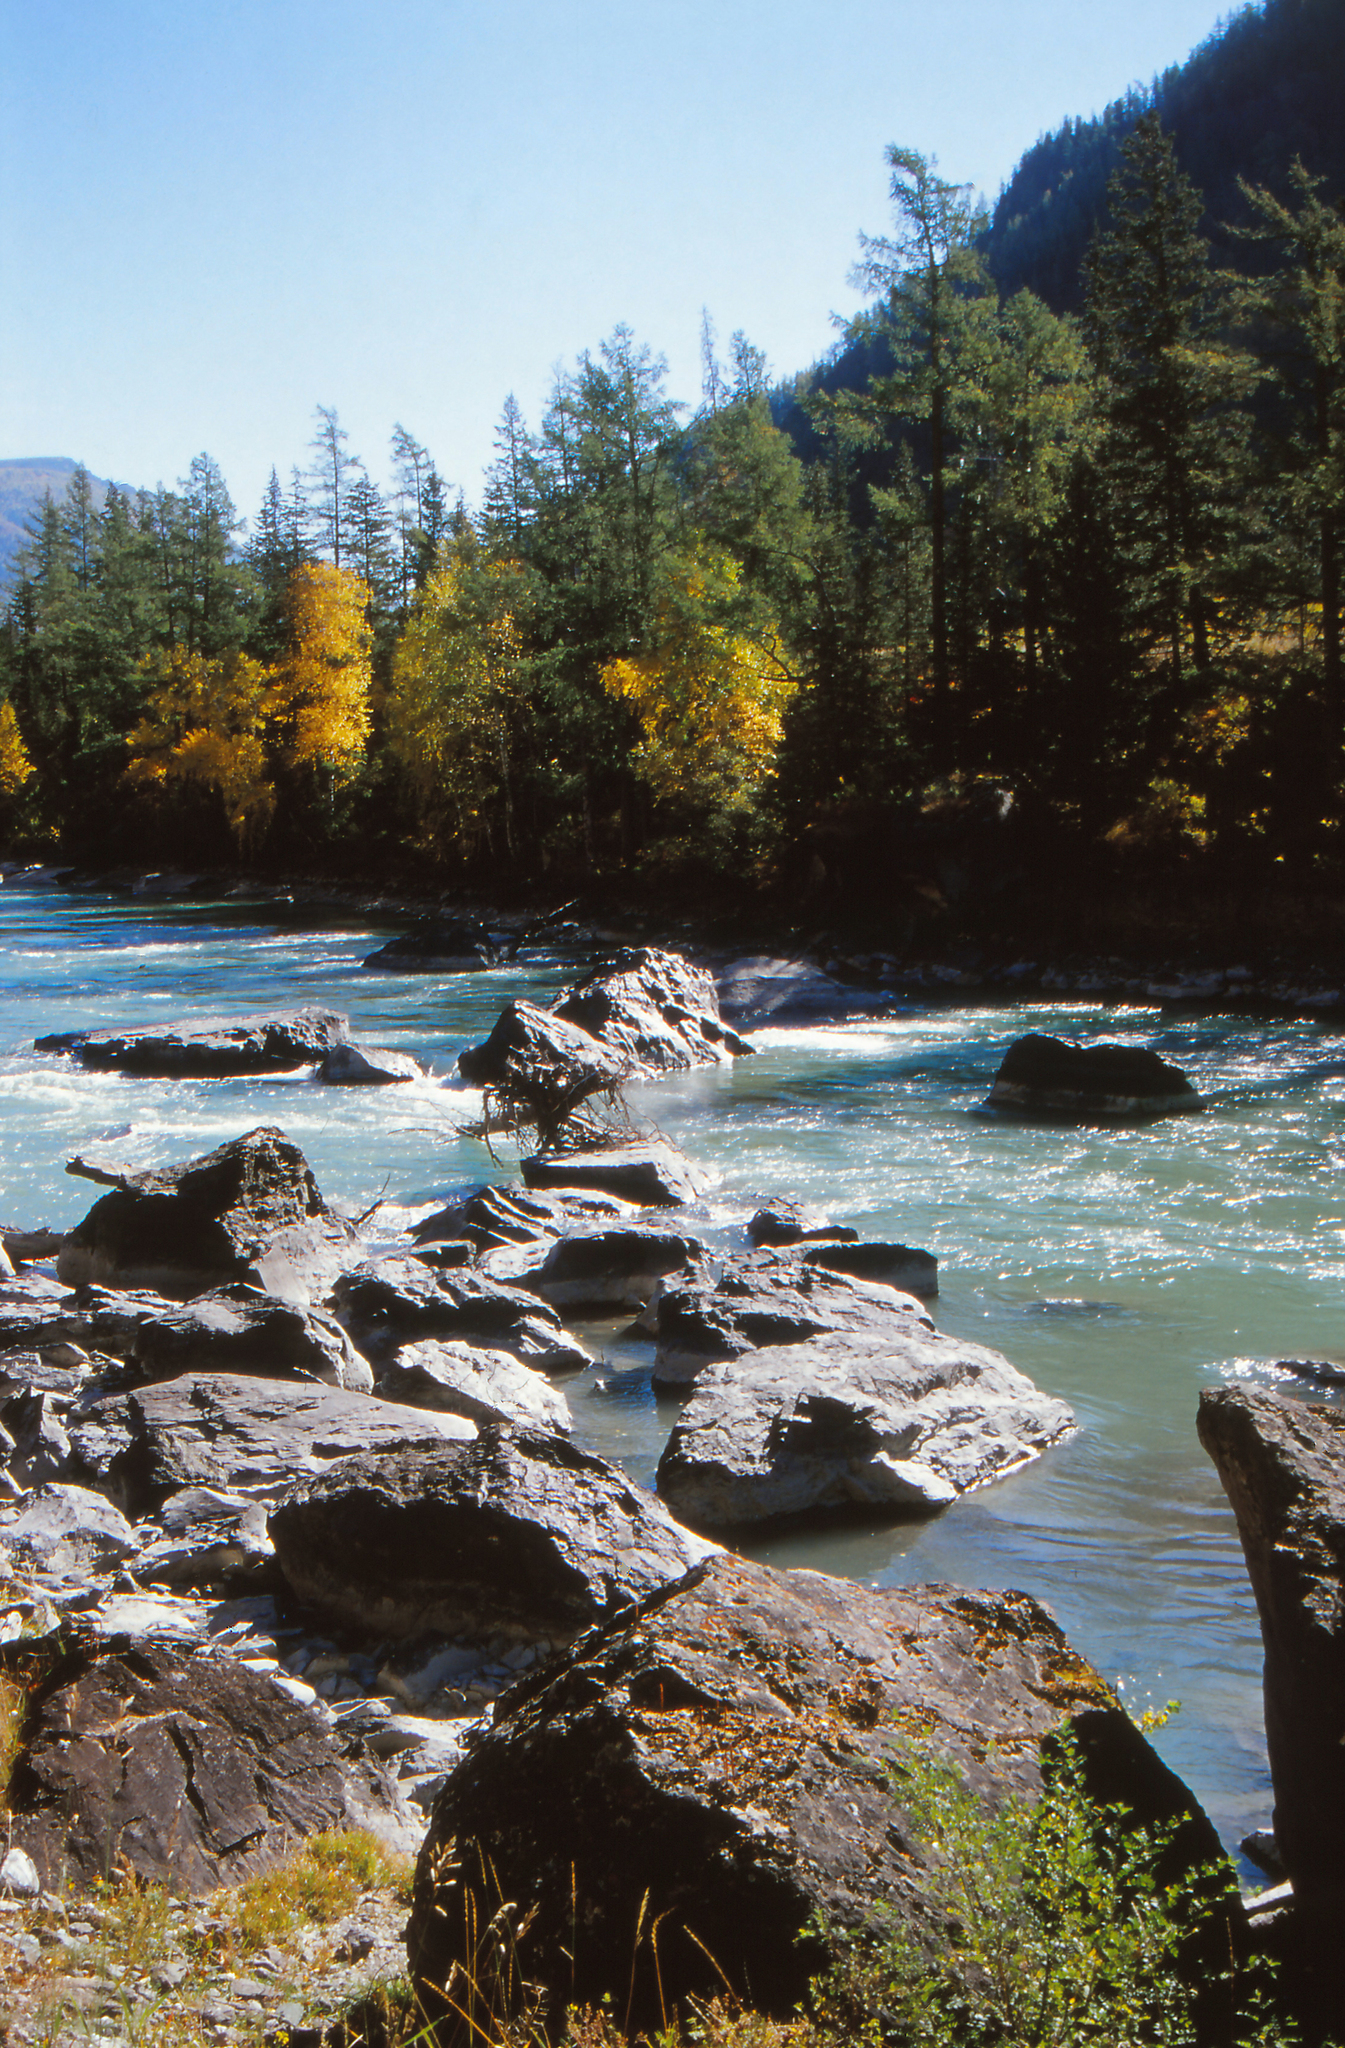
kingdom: Plantae
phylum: Tracheophyta
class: Pinopsida
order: Pinales
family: Pinaceae
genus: Larix
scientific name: Larix sibirica
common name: Siberian larch
